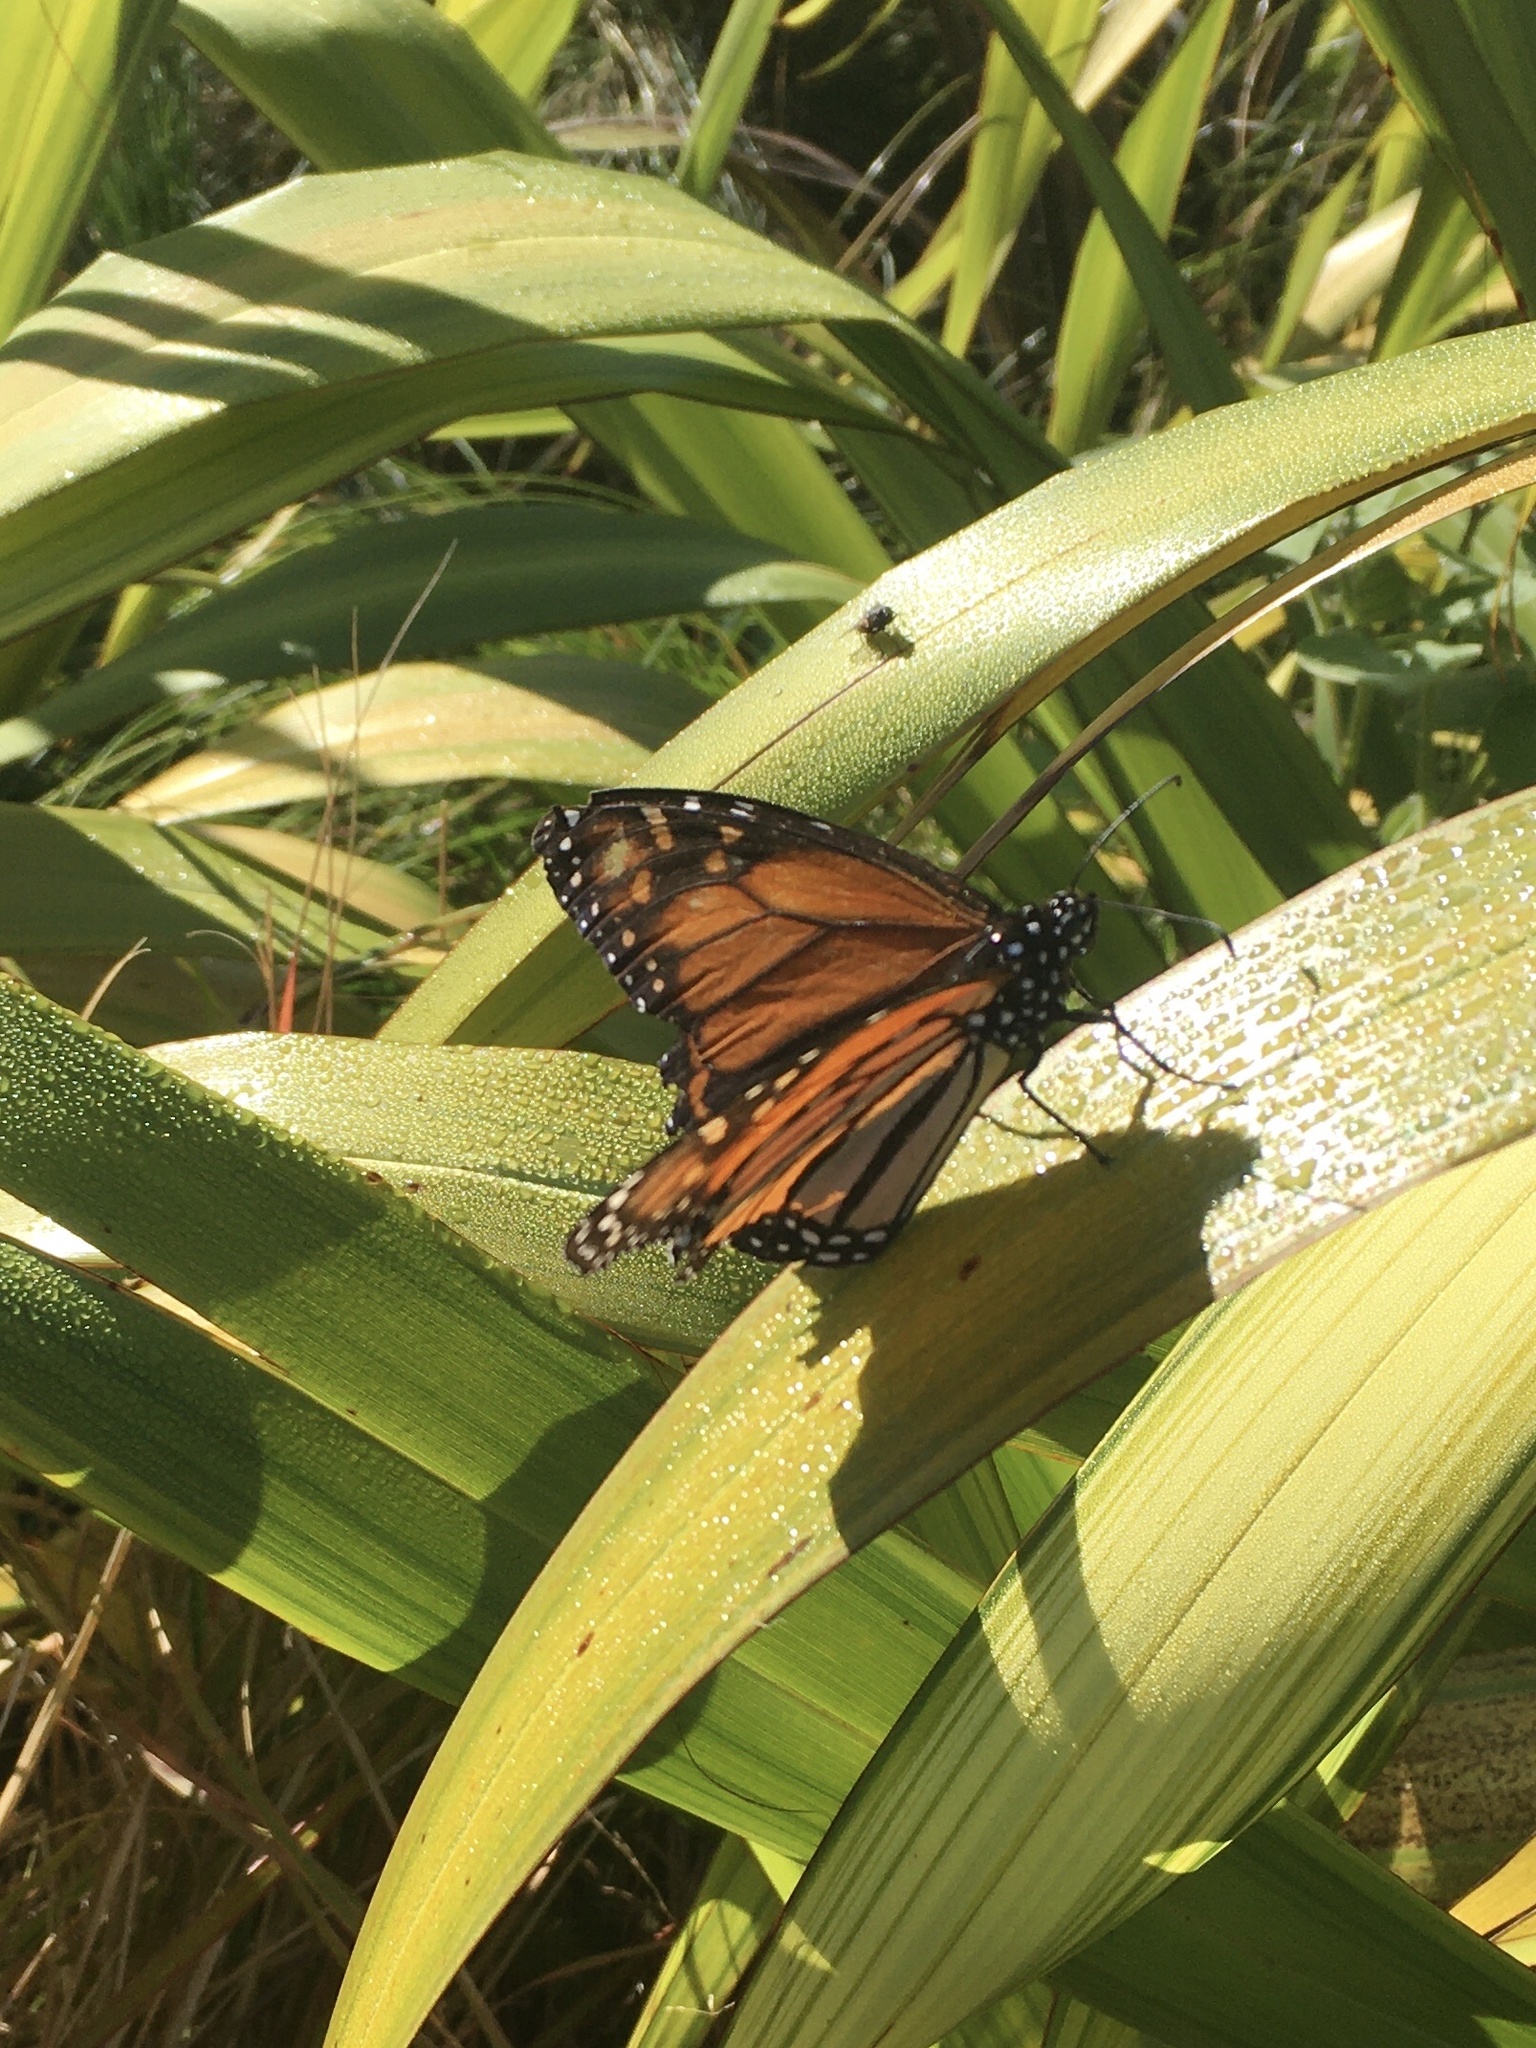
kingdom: Animalia
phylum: Arthropoda
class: Insecta
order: Lepidoptera
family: Nymphalidae
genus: Danaus
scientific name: Danaus plexippus
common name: Monarch
